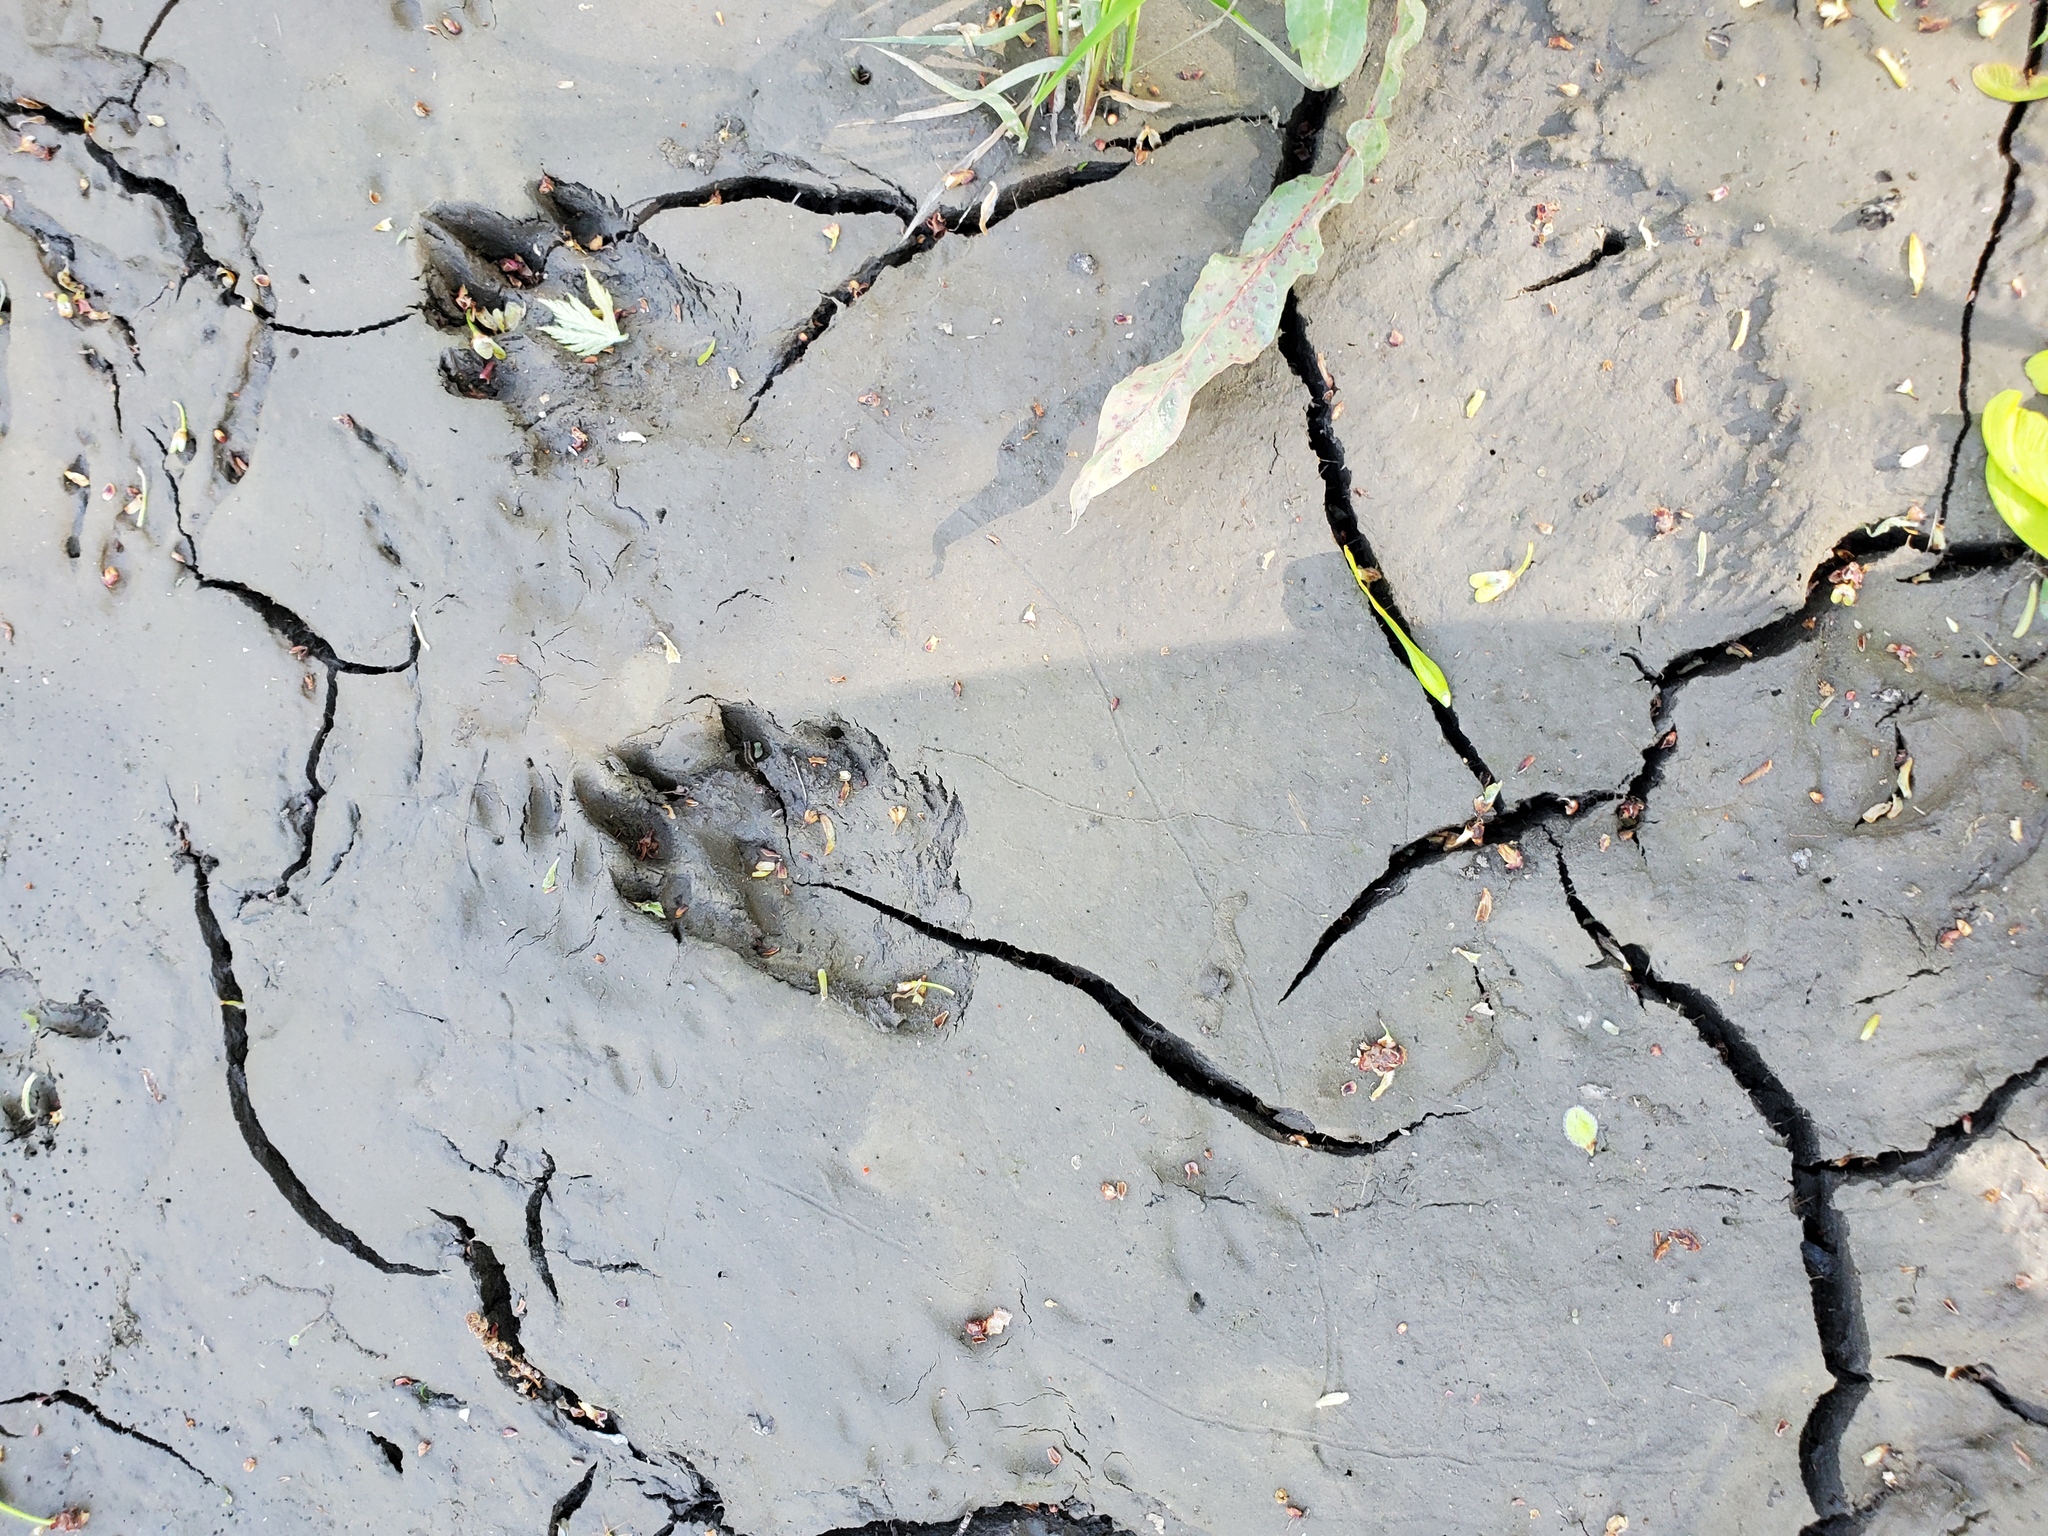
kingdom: Animalia
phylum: Chordata
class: Mammalia
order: Carnivora
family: Procyonidae
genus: Procyon
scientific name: Procyon lotor
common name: Raccoon
